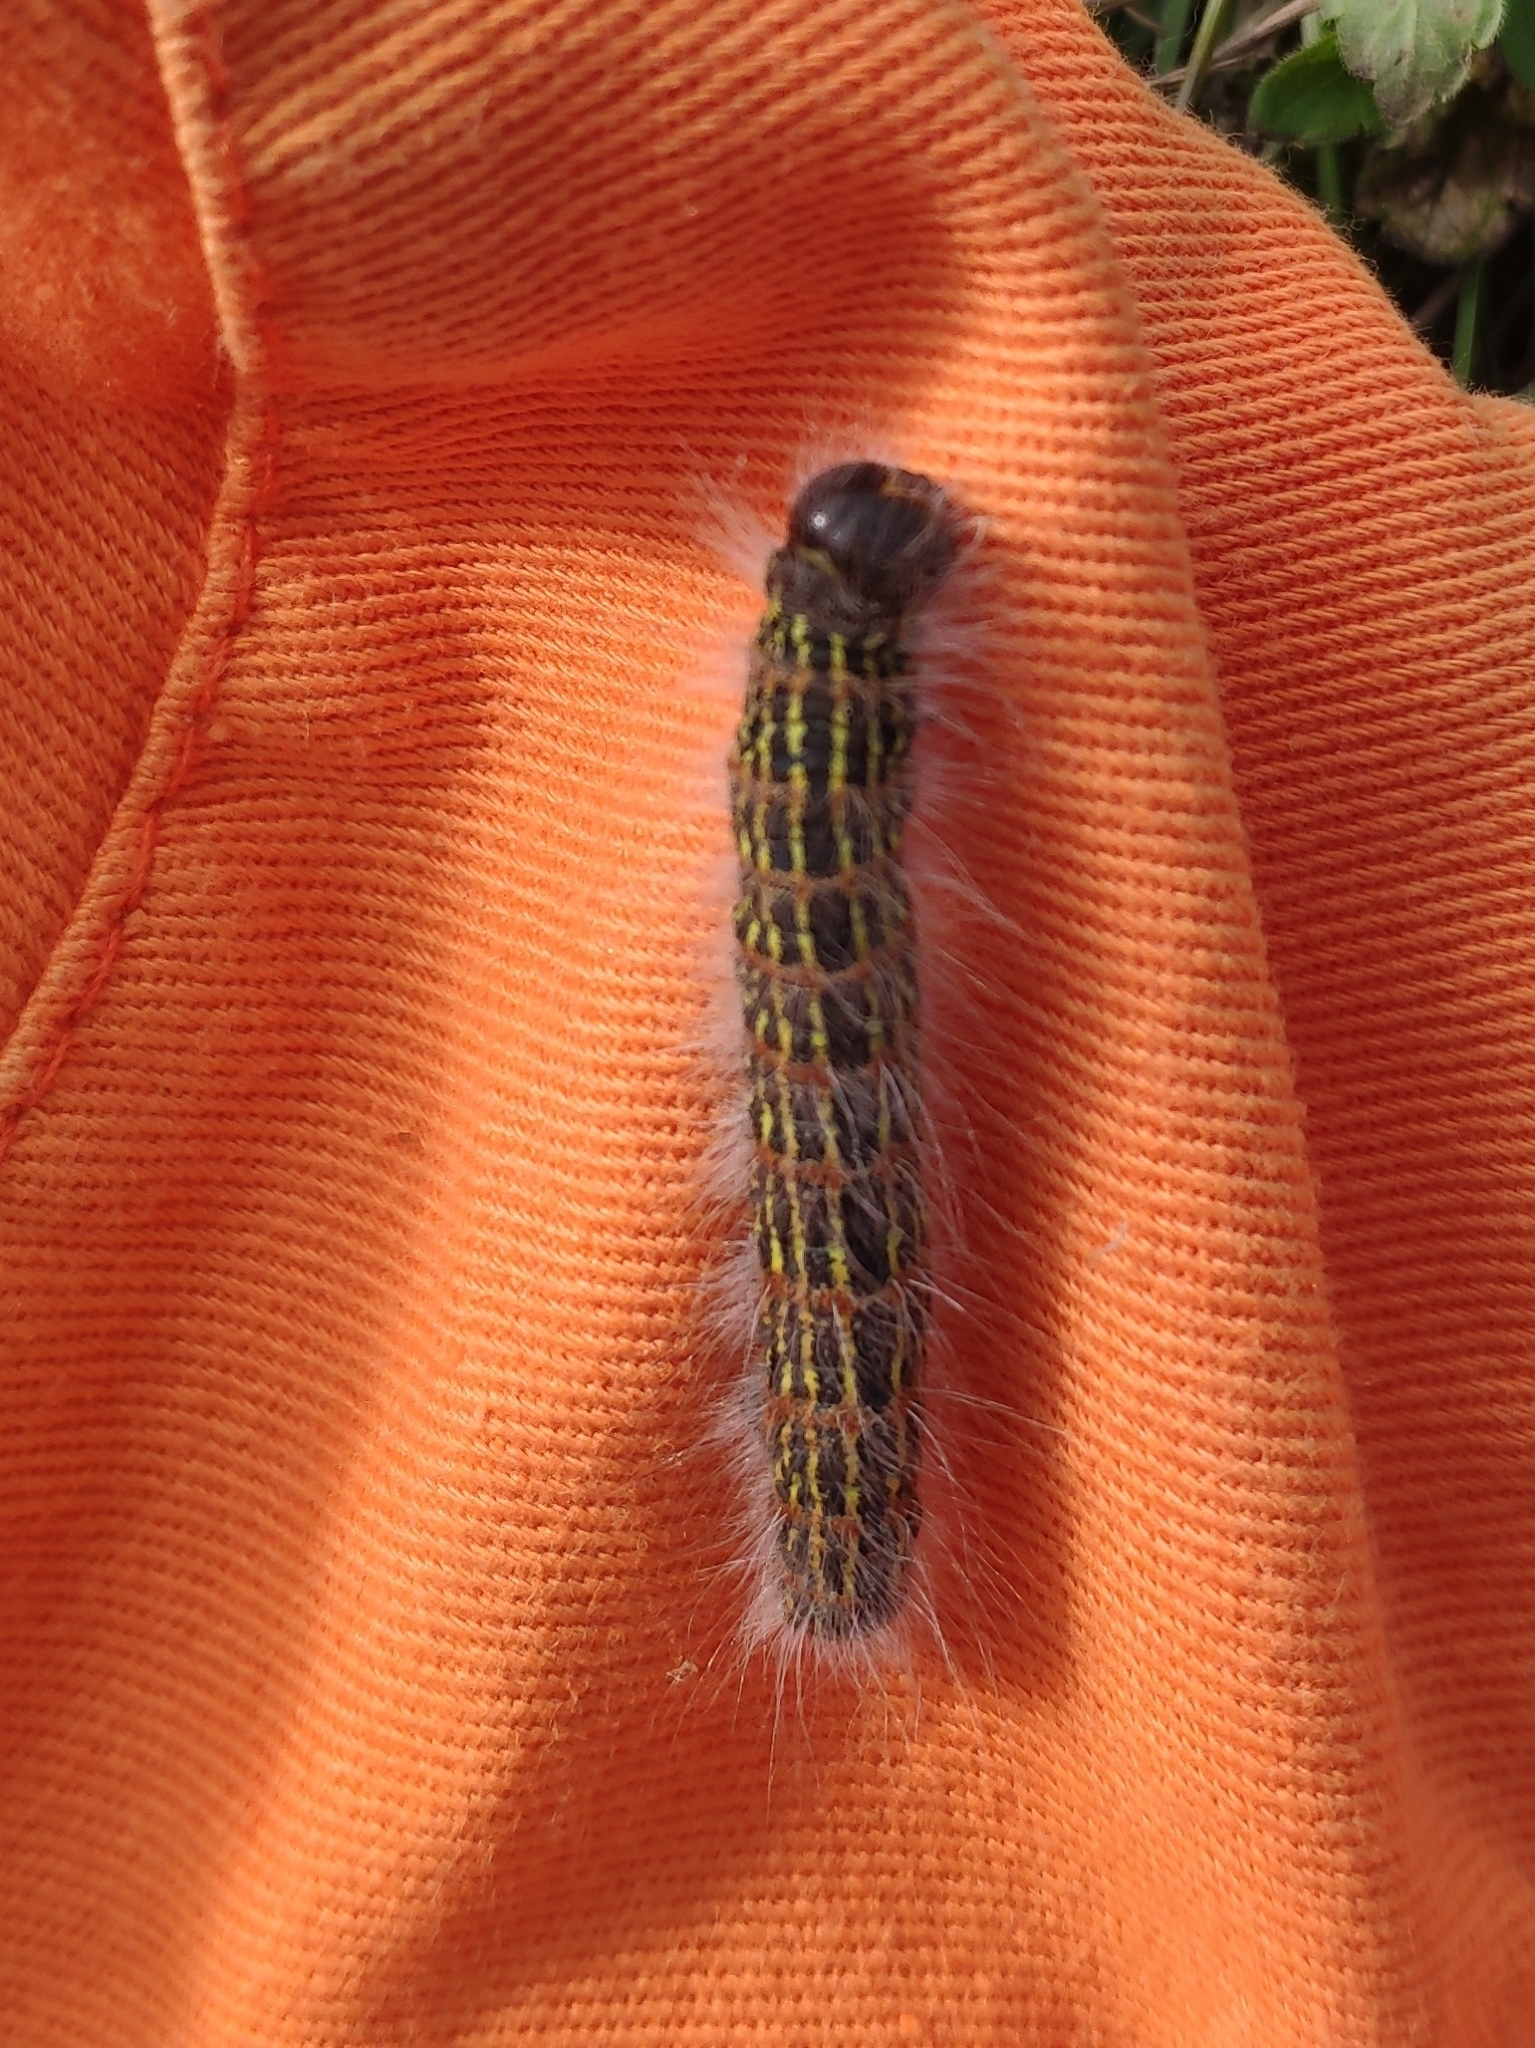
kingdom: Animalia
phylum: Arthropoda
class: Insecta
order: Lepidoptera
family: Notodontidae
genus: Phalera
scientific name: Phalera bucephala
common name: Buff-tip
